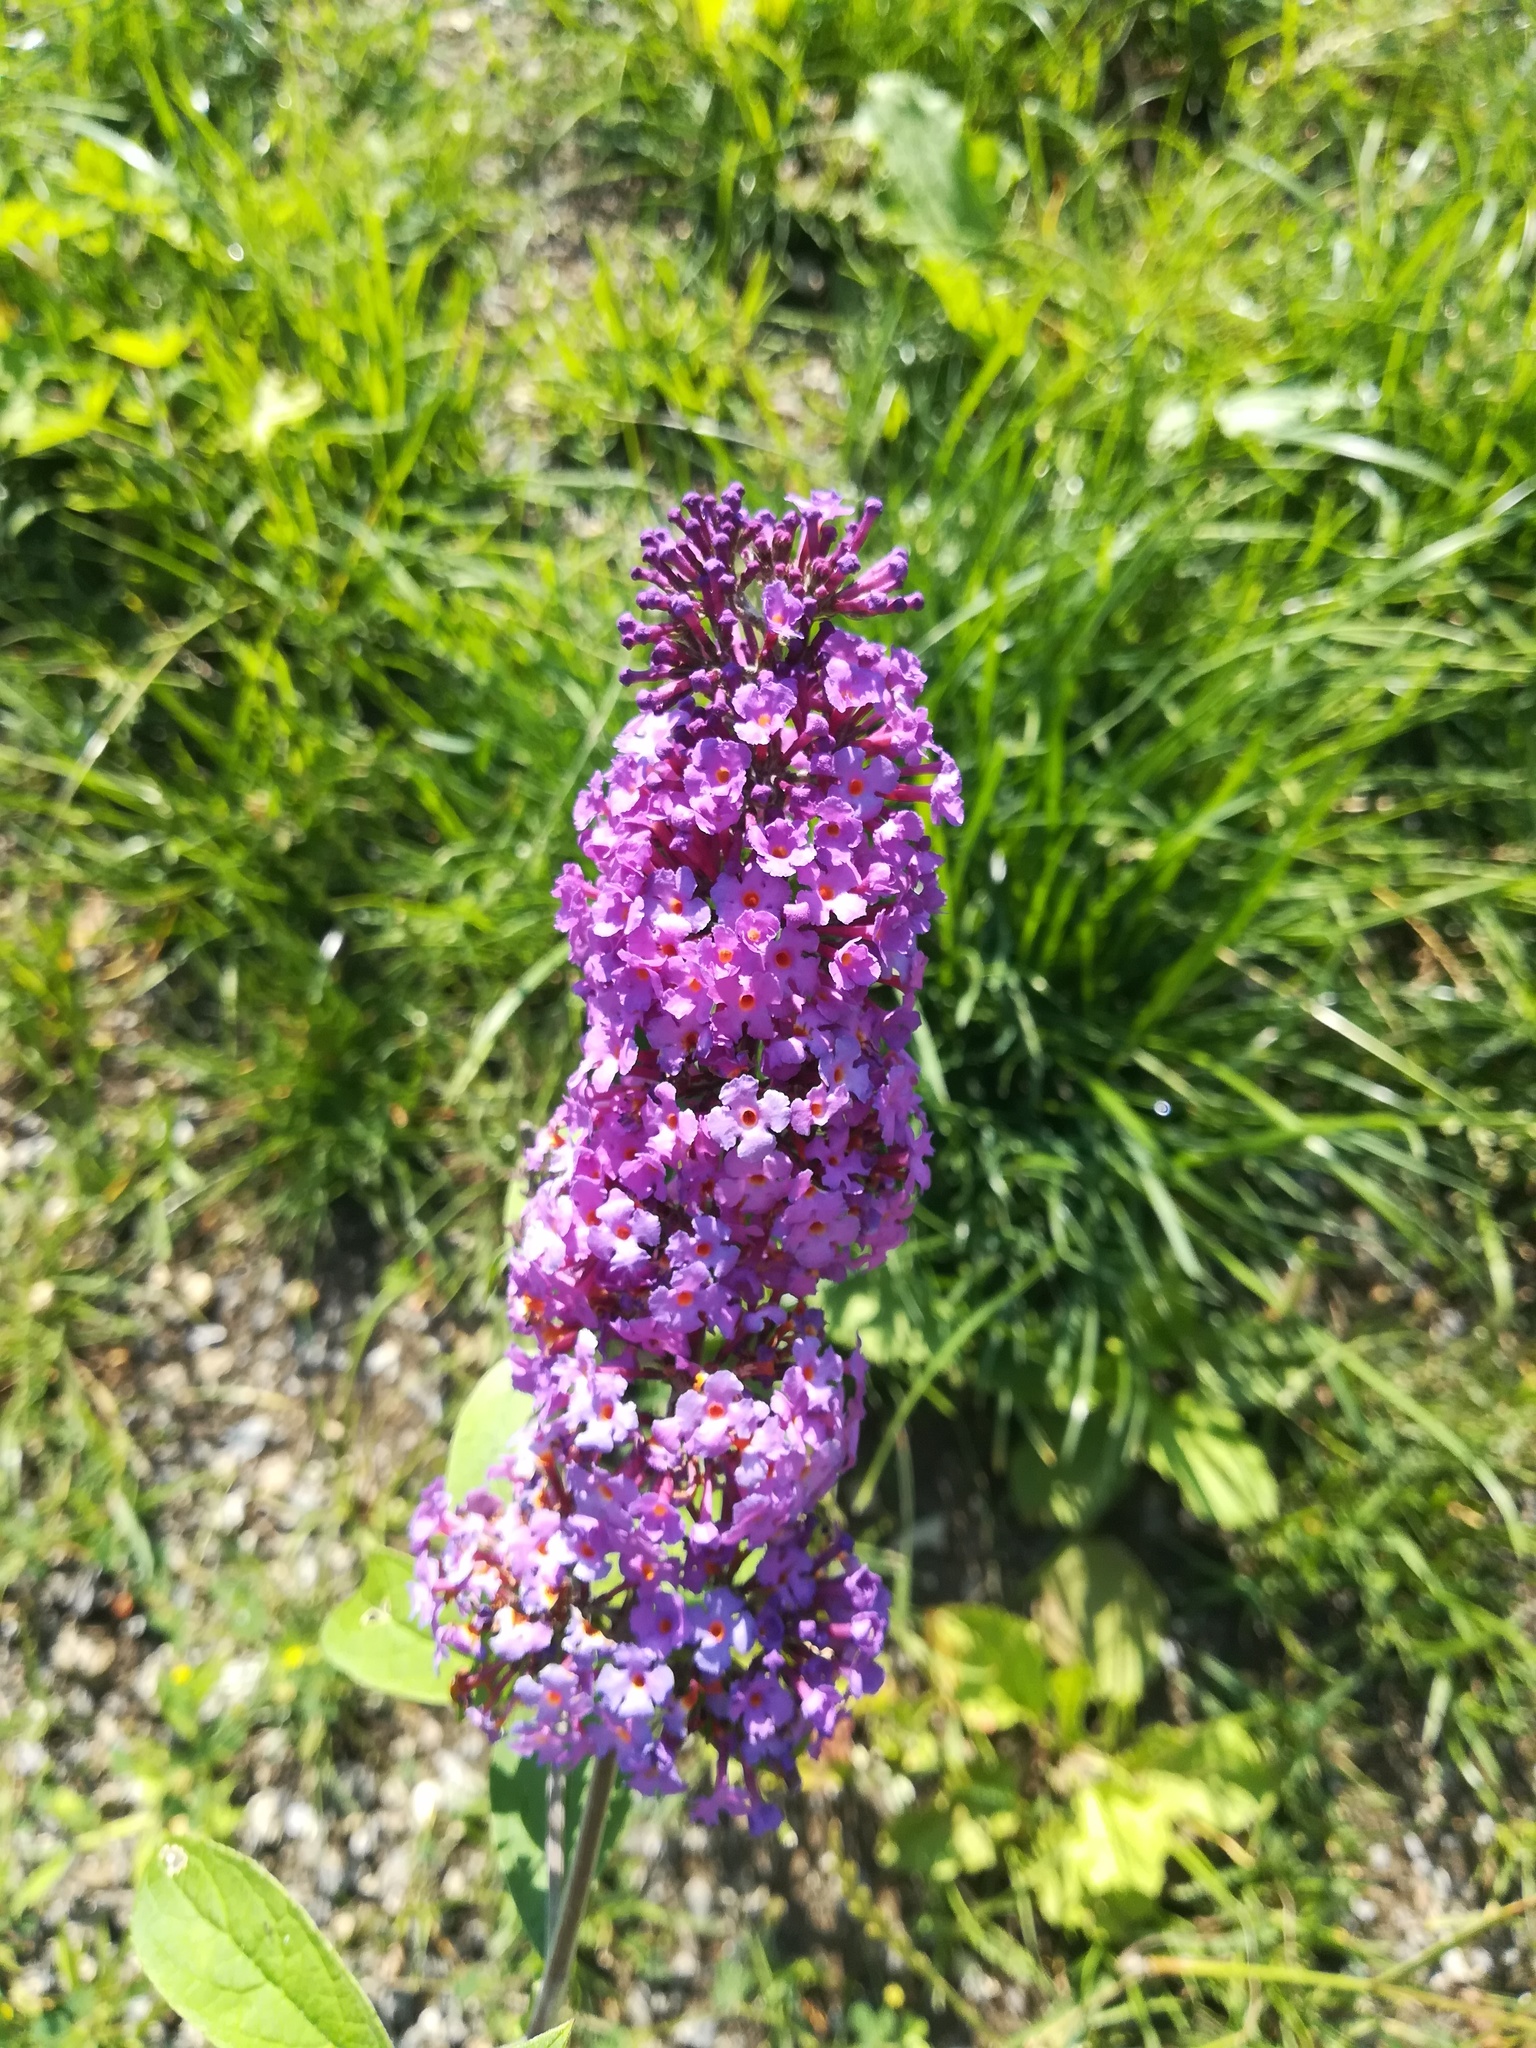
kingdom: Plantae
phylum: Tracheophyta
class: Magnoliopsida
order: Lamiales
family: Scrophulariaceae
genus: Buddleja
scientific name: Buddleja davidii
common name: Butterfly-bush
